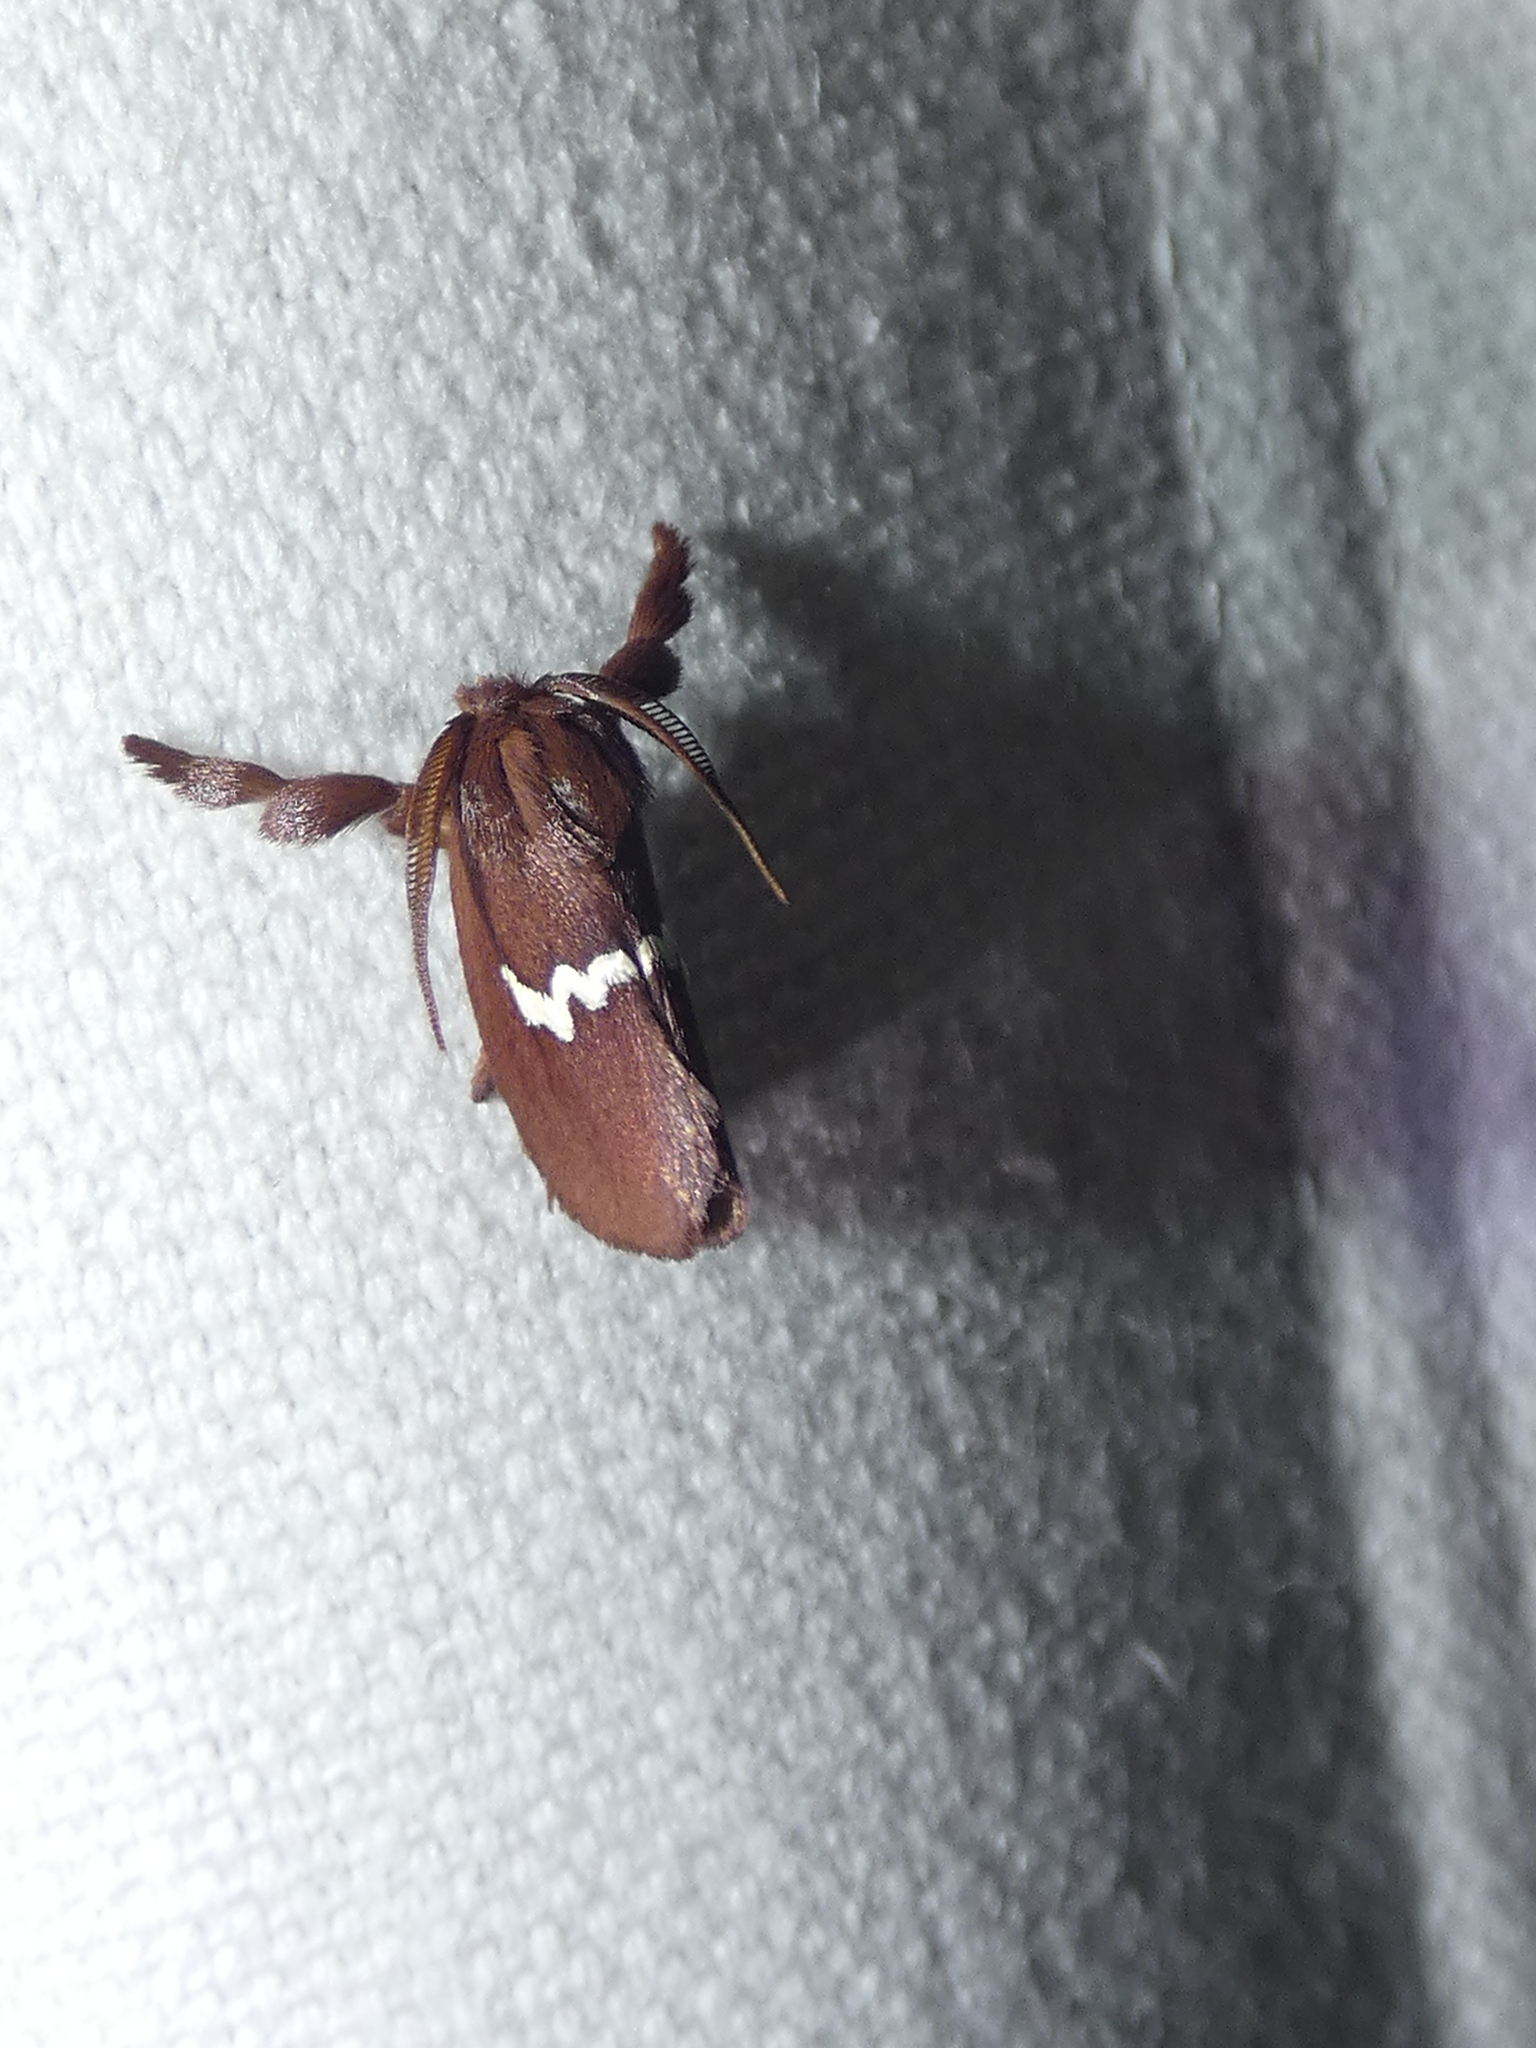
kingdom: Animalia
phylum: Arthropoda
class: Insecta
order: Lepidoptera
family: Limacodidae
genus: Monoleuca
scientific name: Monoleuca semifascia
